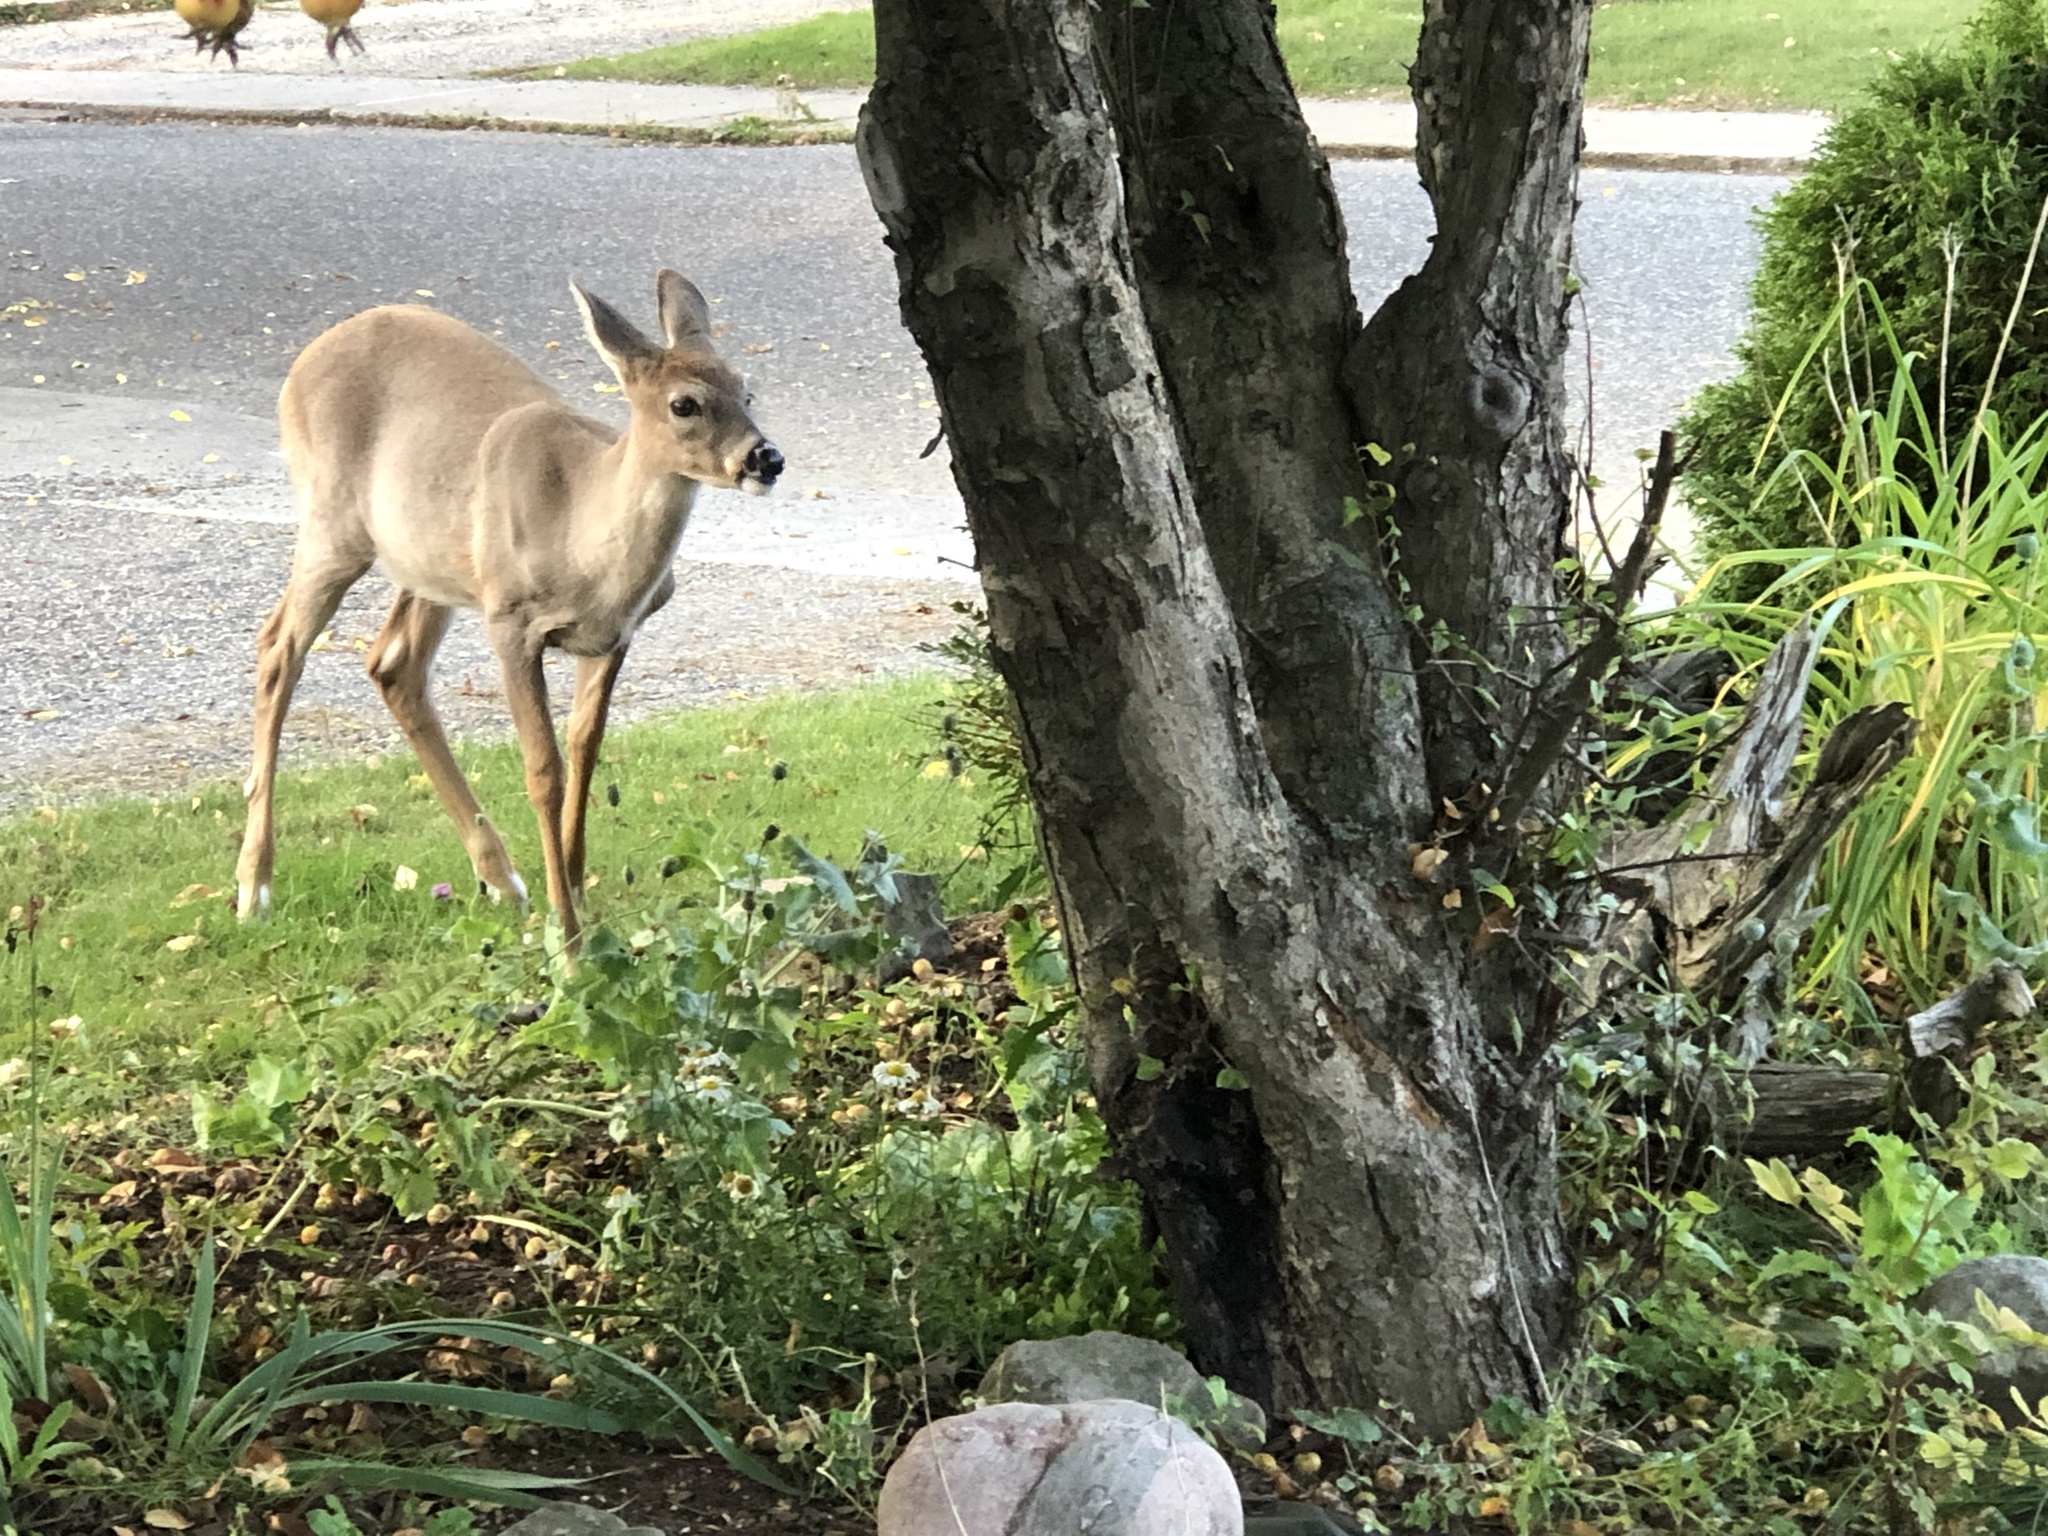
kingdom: Animalia
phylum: Chordata
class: Mammalia
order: Artiodactyla
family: Cervidae
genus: Odocoileus
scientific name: Odocoileus virginianus
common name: White-tailed deer
